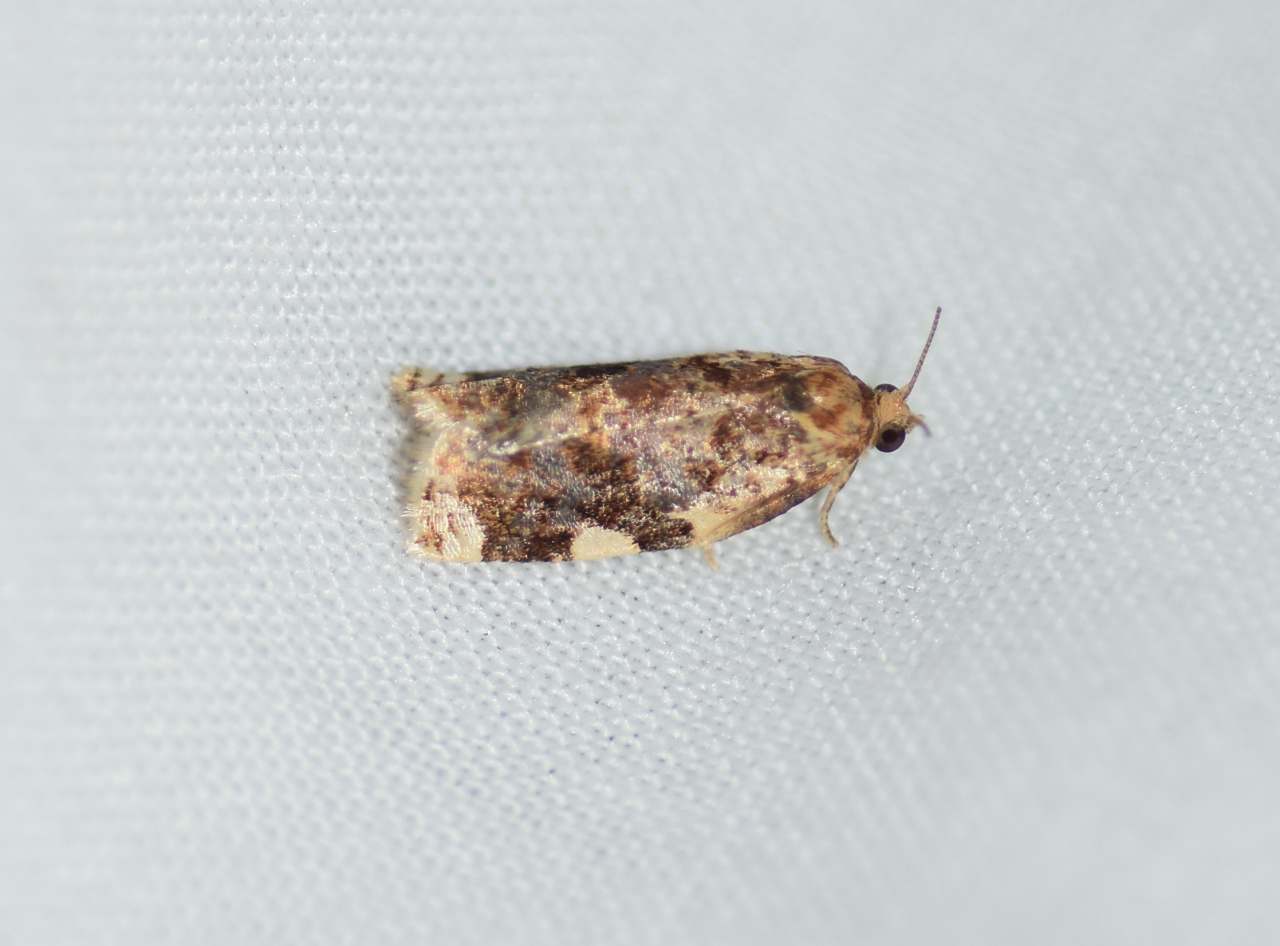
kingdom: Animalia
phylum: Arthropoda
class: Insecta
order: Lepidoptera
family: Tortricidae
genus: Archips
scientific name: Archips argyrospila
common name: Fruit-tree leafroller moth
